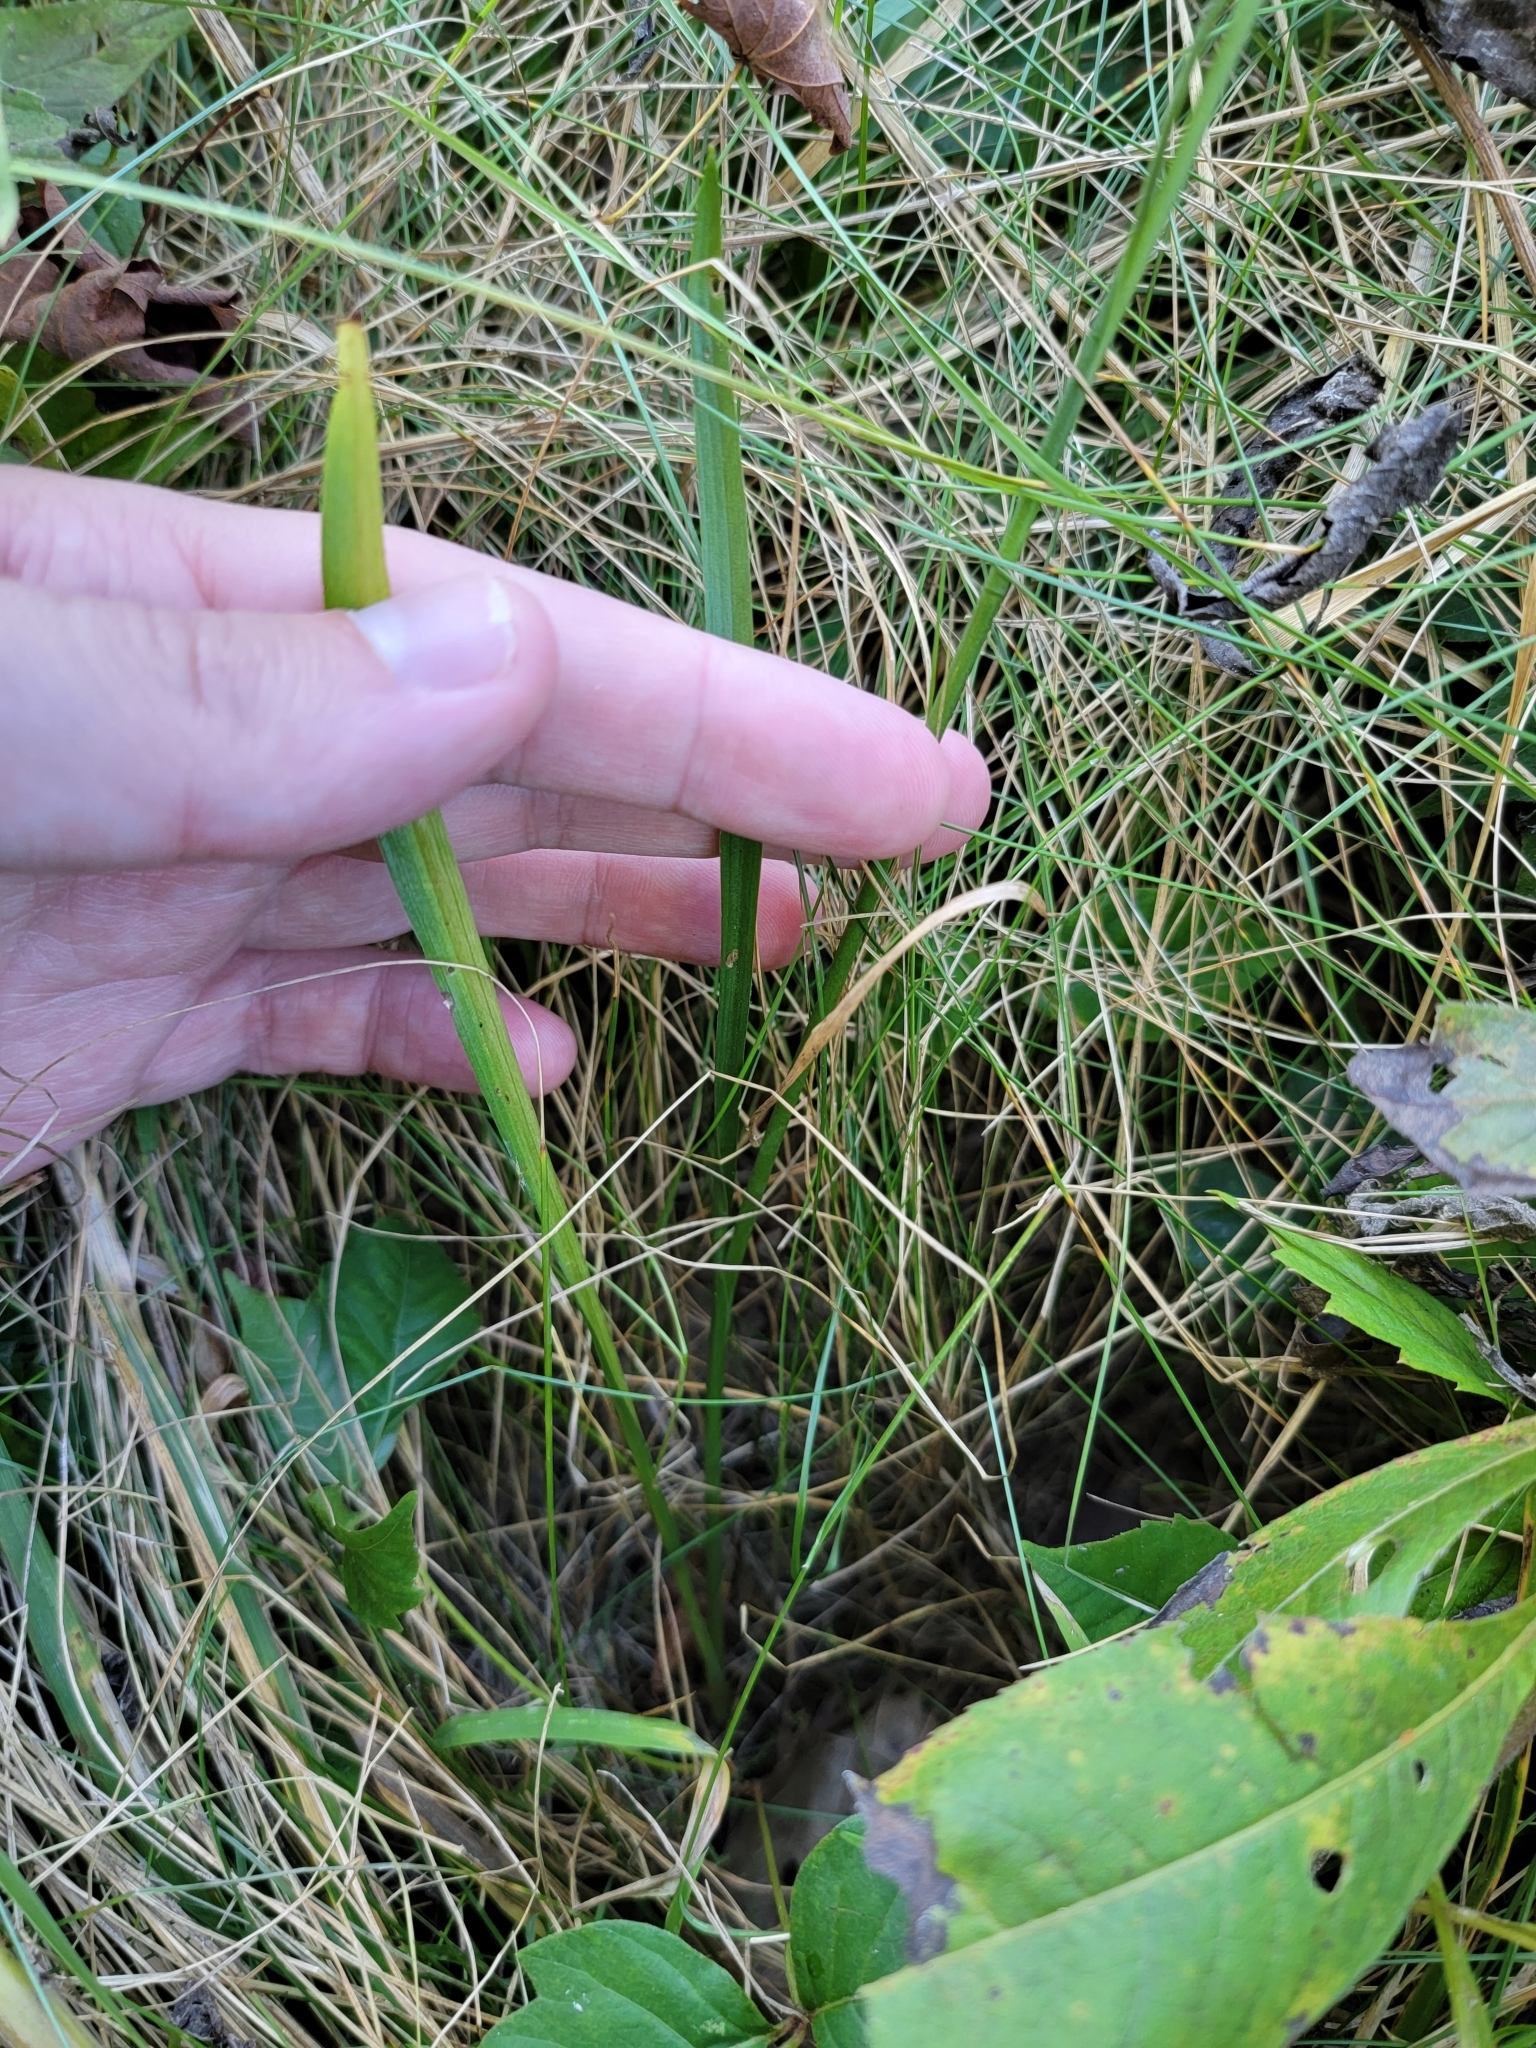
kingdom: Plantae
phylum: Tracheophyta
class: Liliopsida
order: Asparagales
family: Orchidaceae
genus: Spiranthes
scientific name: Spiranthes vernalis
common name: Spring ladies'-tresses
